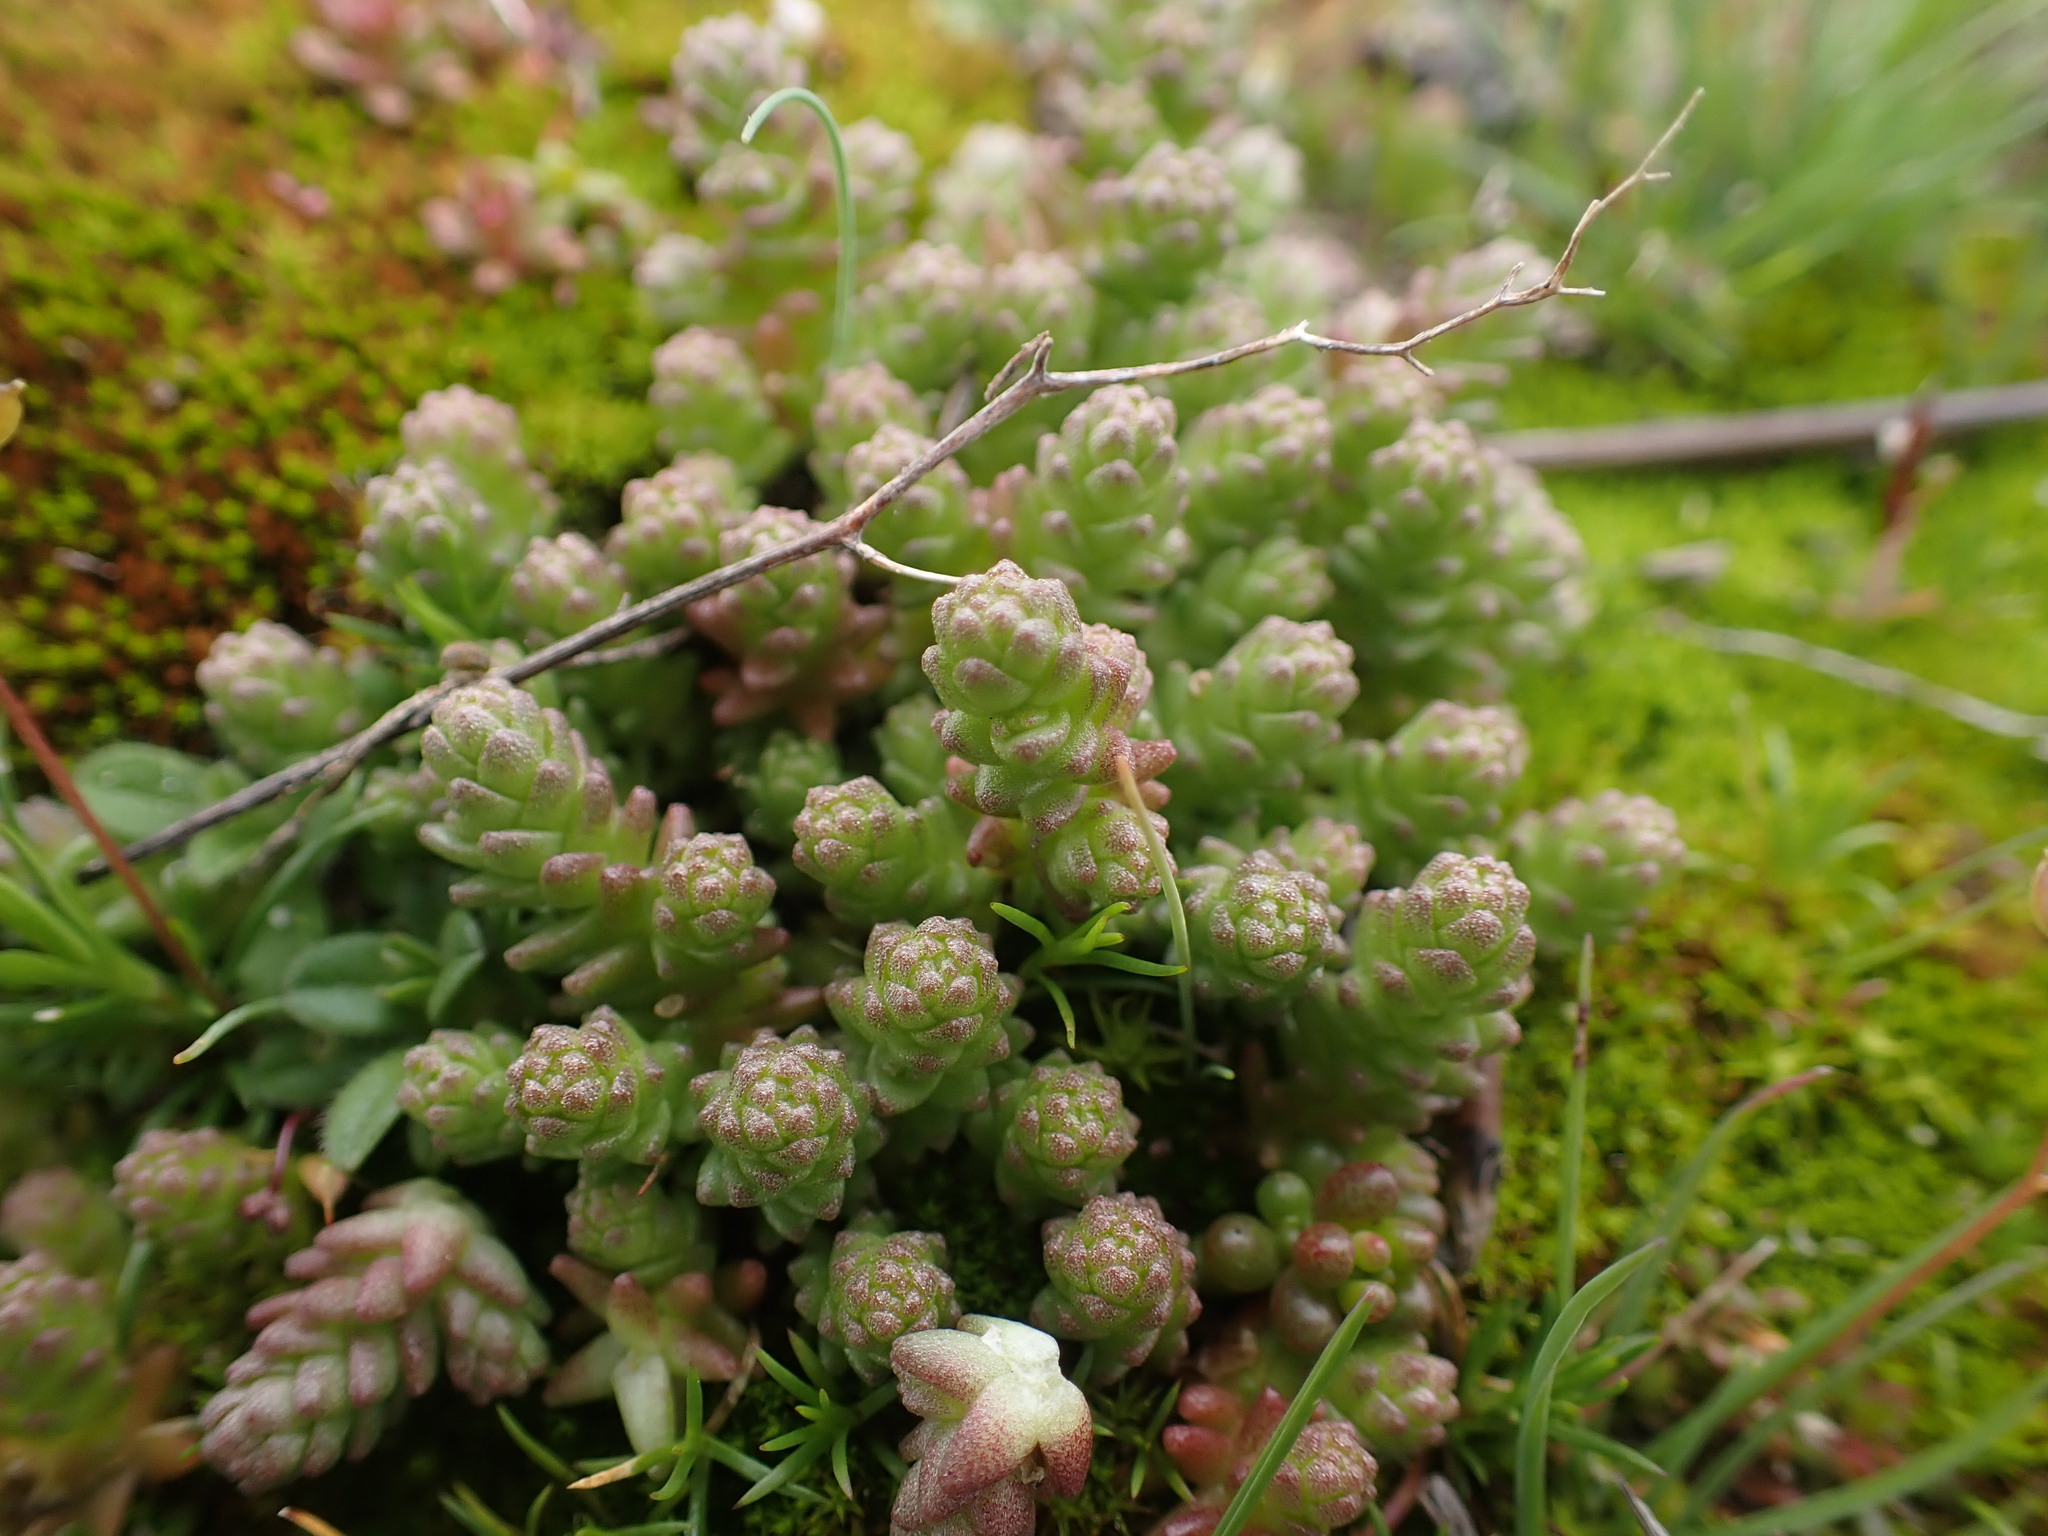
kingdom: Plantae
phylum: Tracheophyta
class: Magnoliopsida
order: Saxifragales
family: Crassulaceae
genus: Sedum
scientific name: Sedum acre
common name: Biting stonecrop
